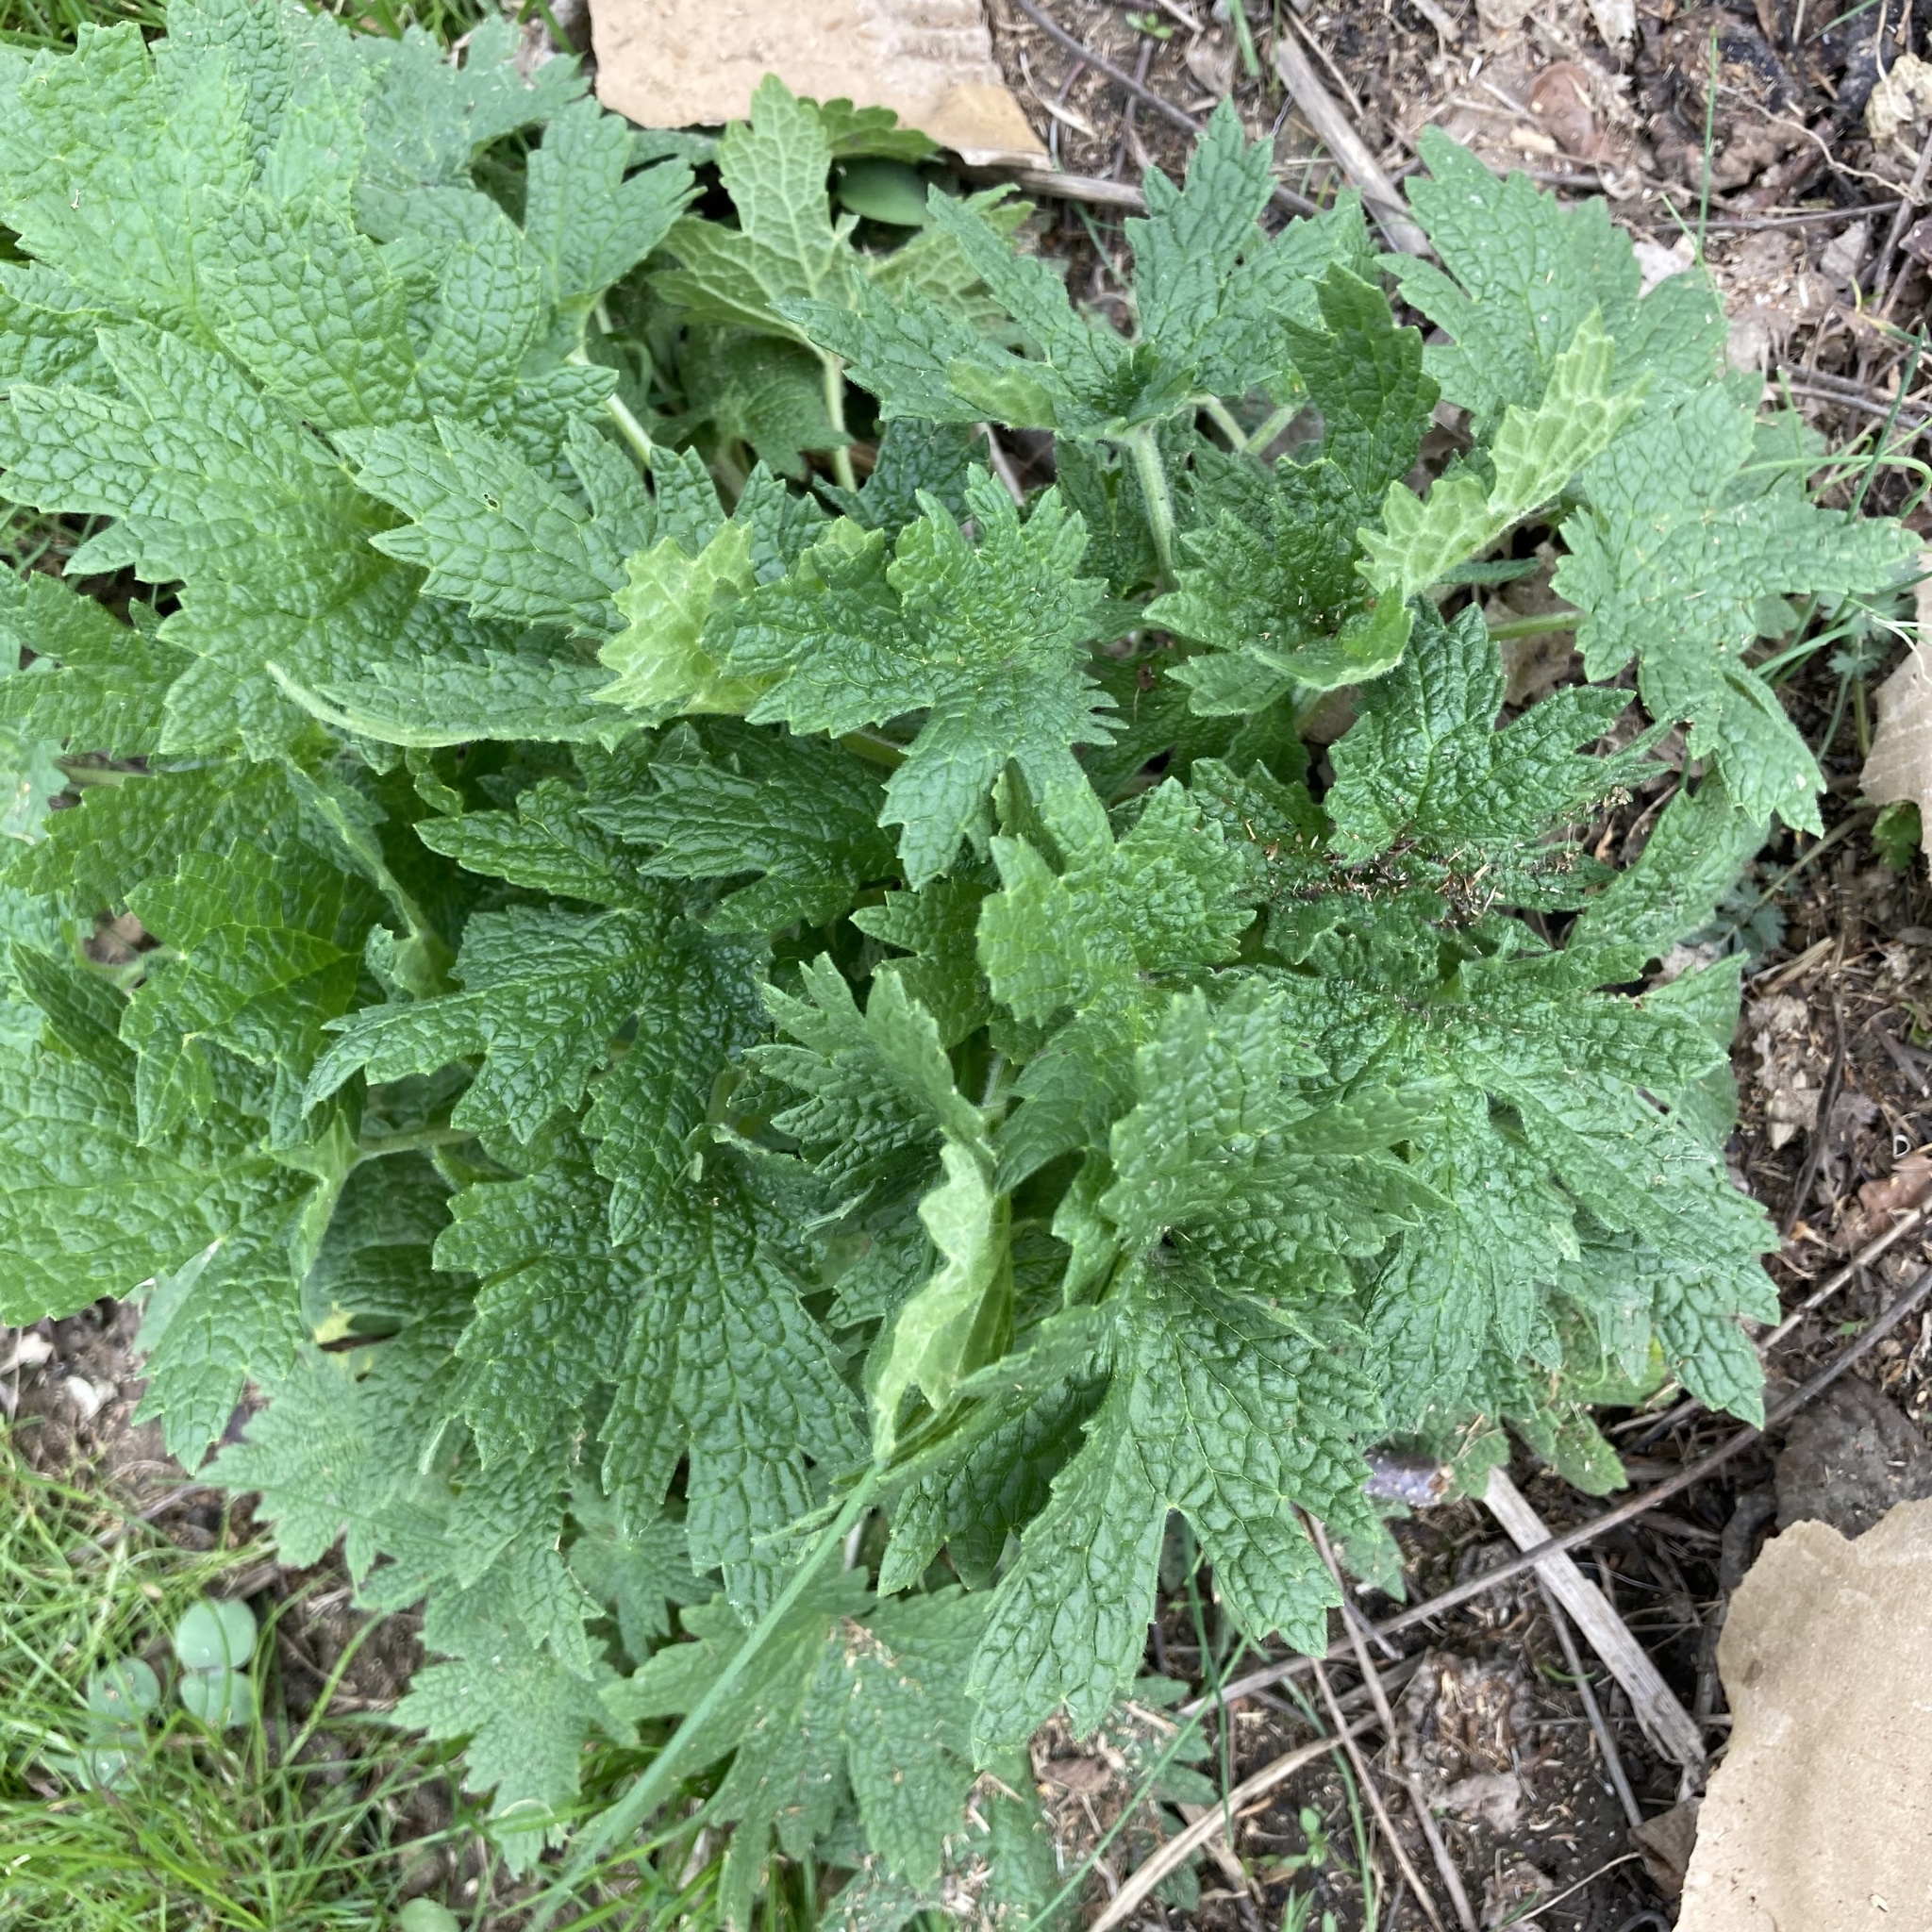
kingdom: Plantae
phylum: Tracheophyta
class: Magnoliopsida
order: Lamiales
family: Lamiaceae
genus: Leonurus
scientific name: Leonurus cardiaca
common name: Motherwort
